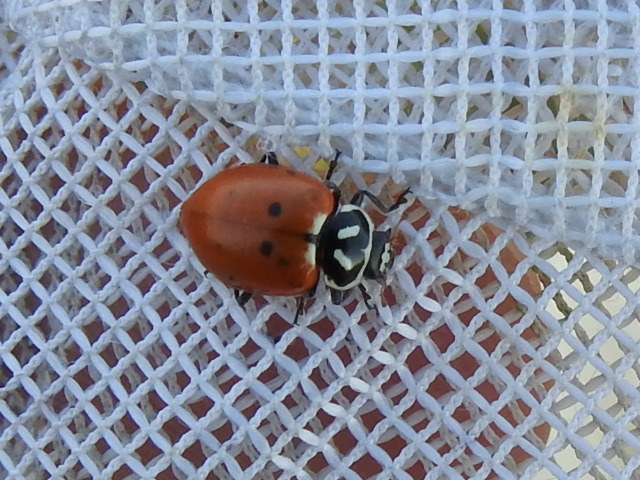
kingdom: Animalia
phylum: Arthropoda
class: Insecta
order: Coleoptera
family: Coccinellidae
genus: Hippodamia
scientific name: Hippodamia convergens
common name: Convergent lady beetle
